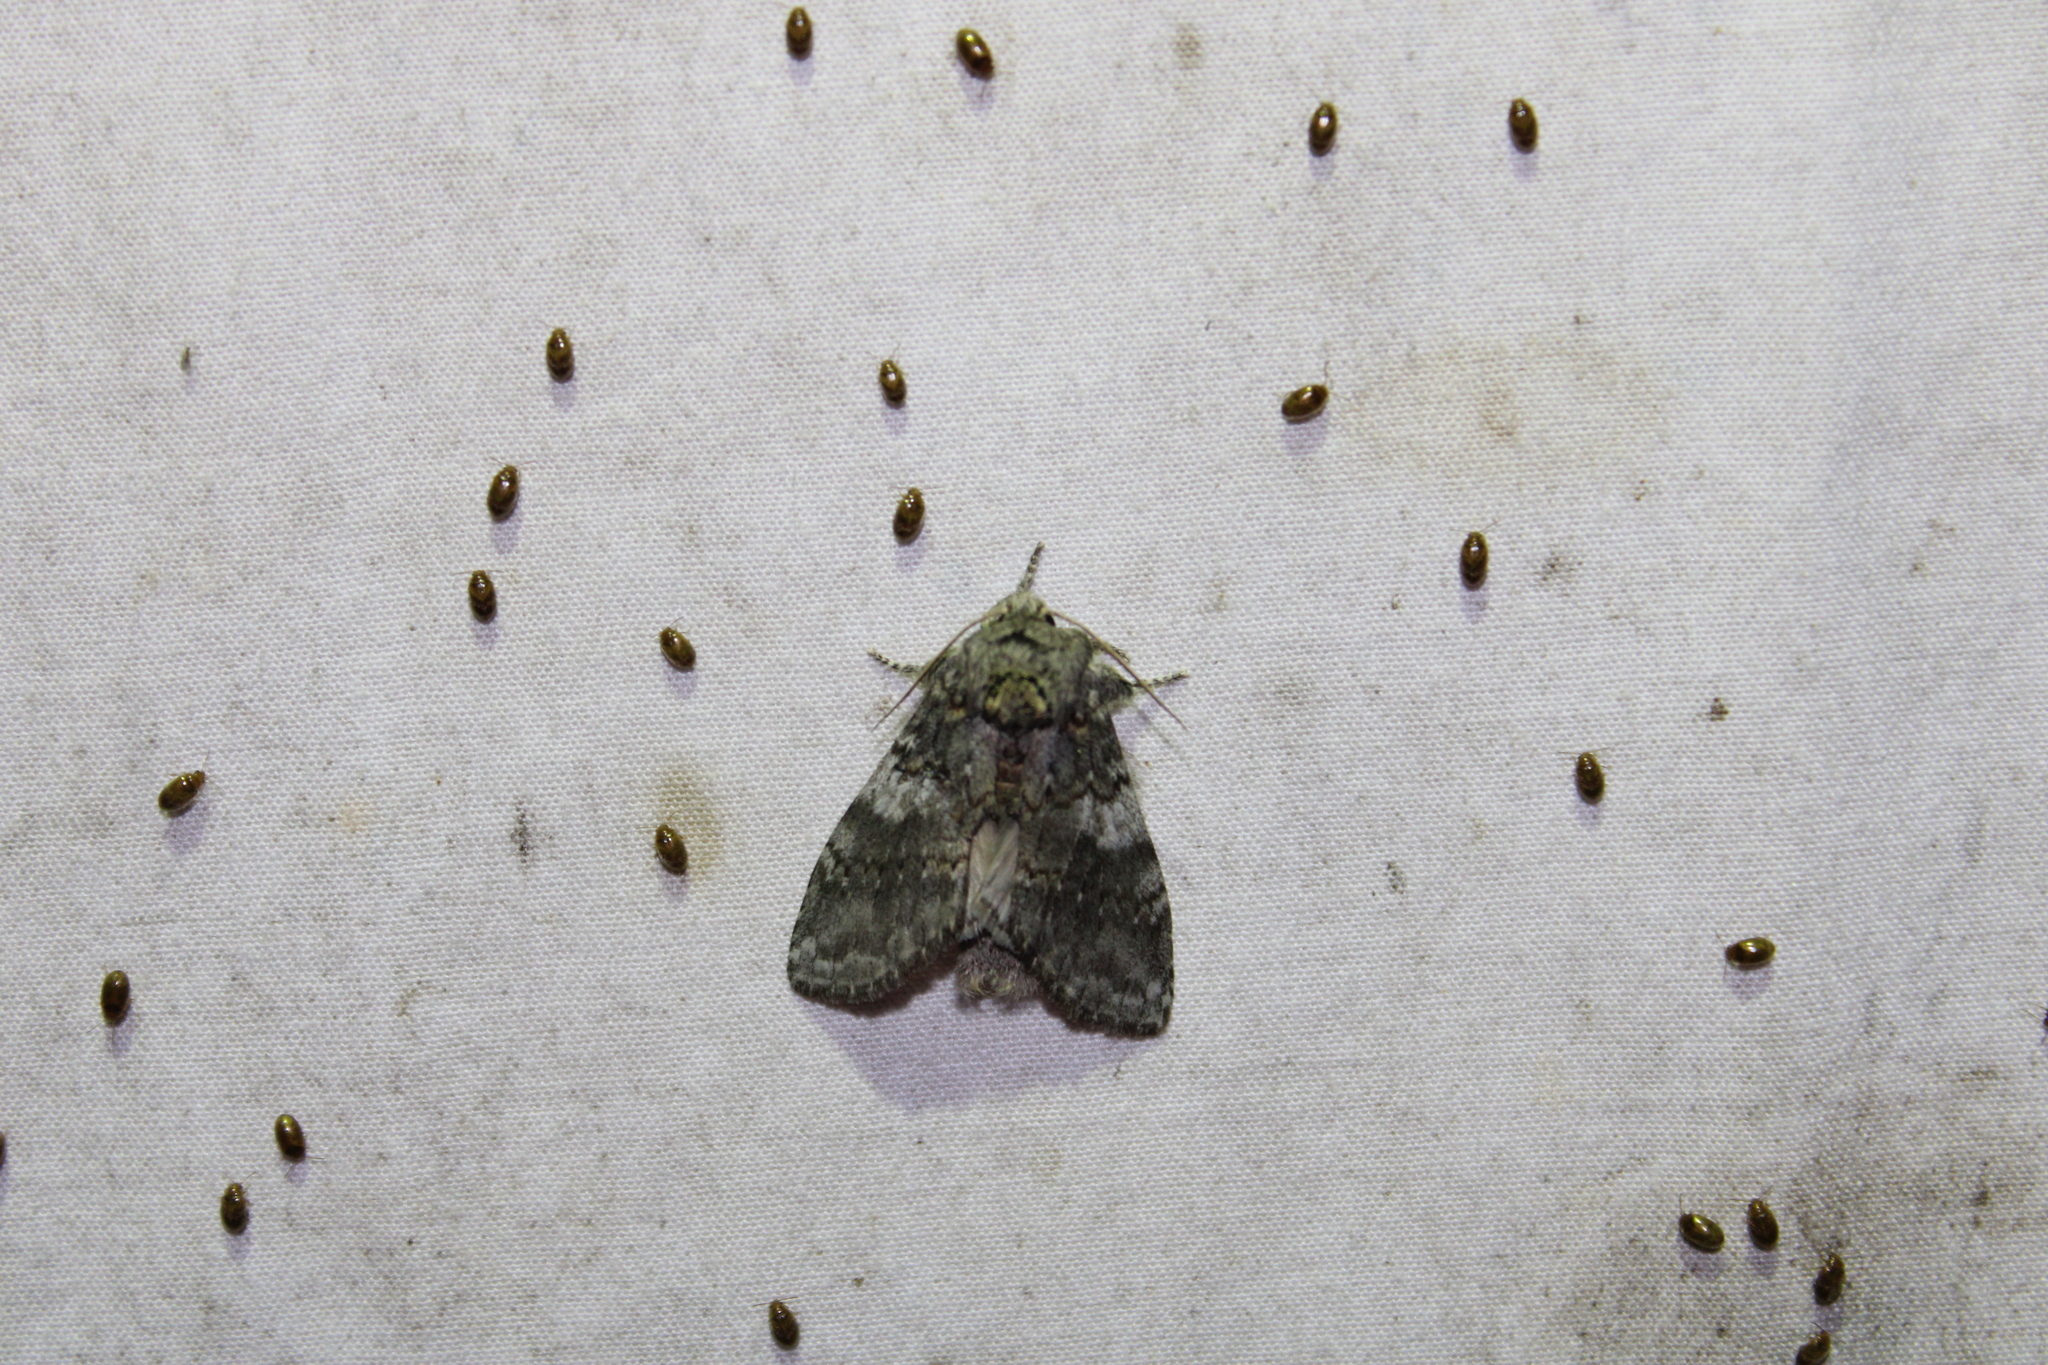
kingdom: Animalia
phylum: Arthropoda
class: Insecta
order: Lepidoptera
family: Notodontidae
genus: Peridea
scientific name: Peridea angulosa
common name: Angulose prominent
